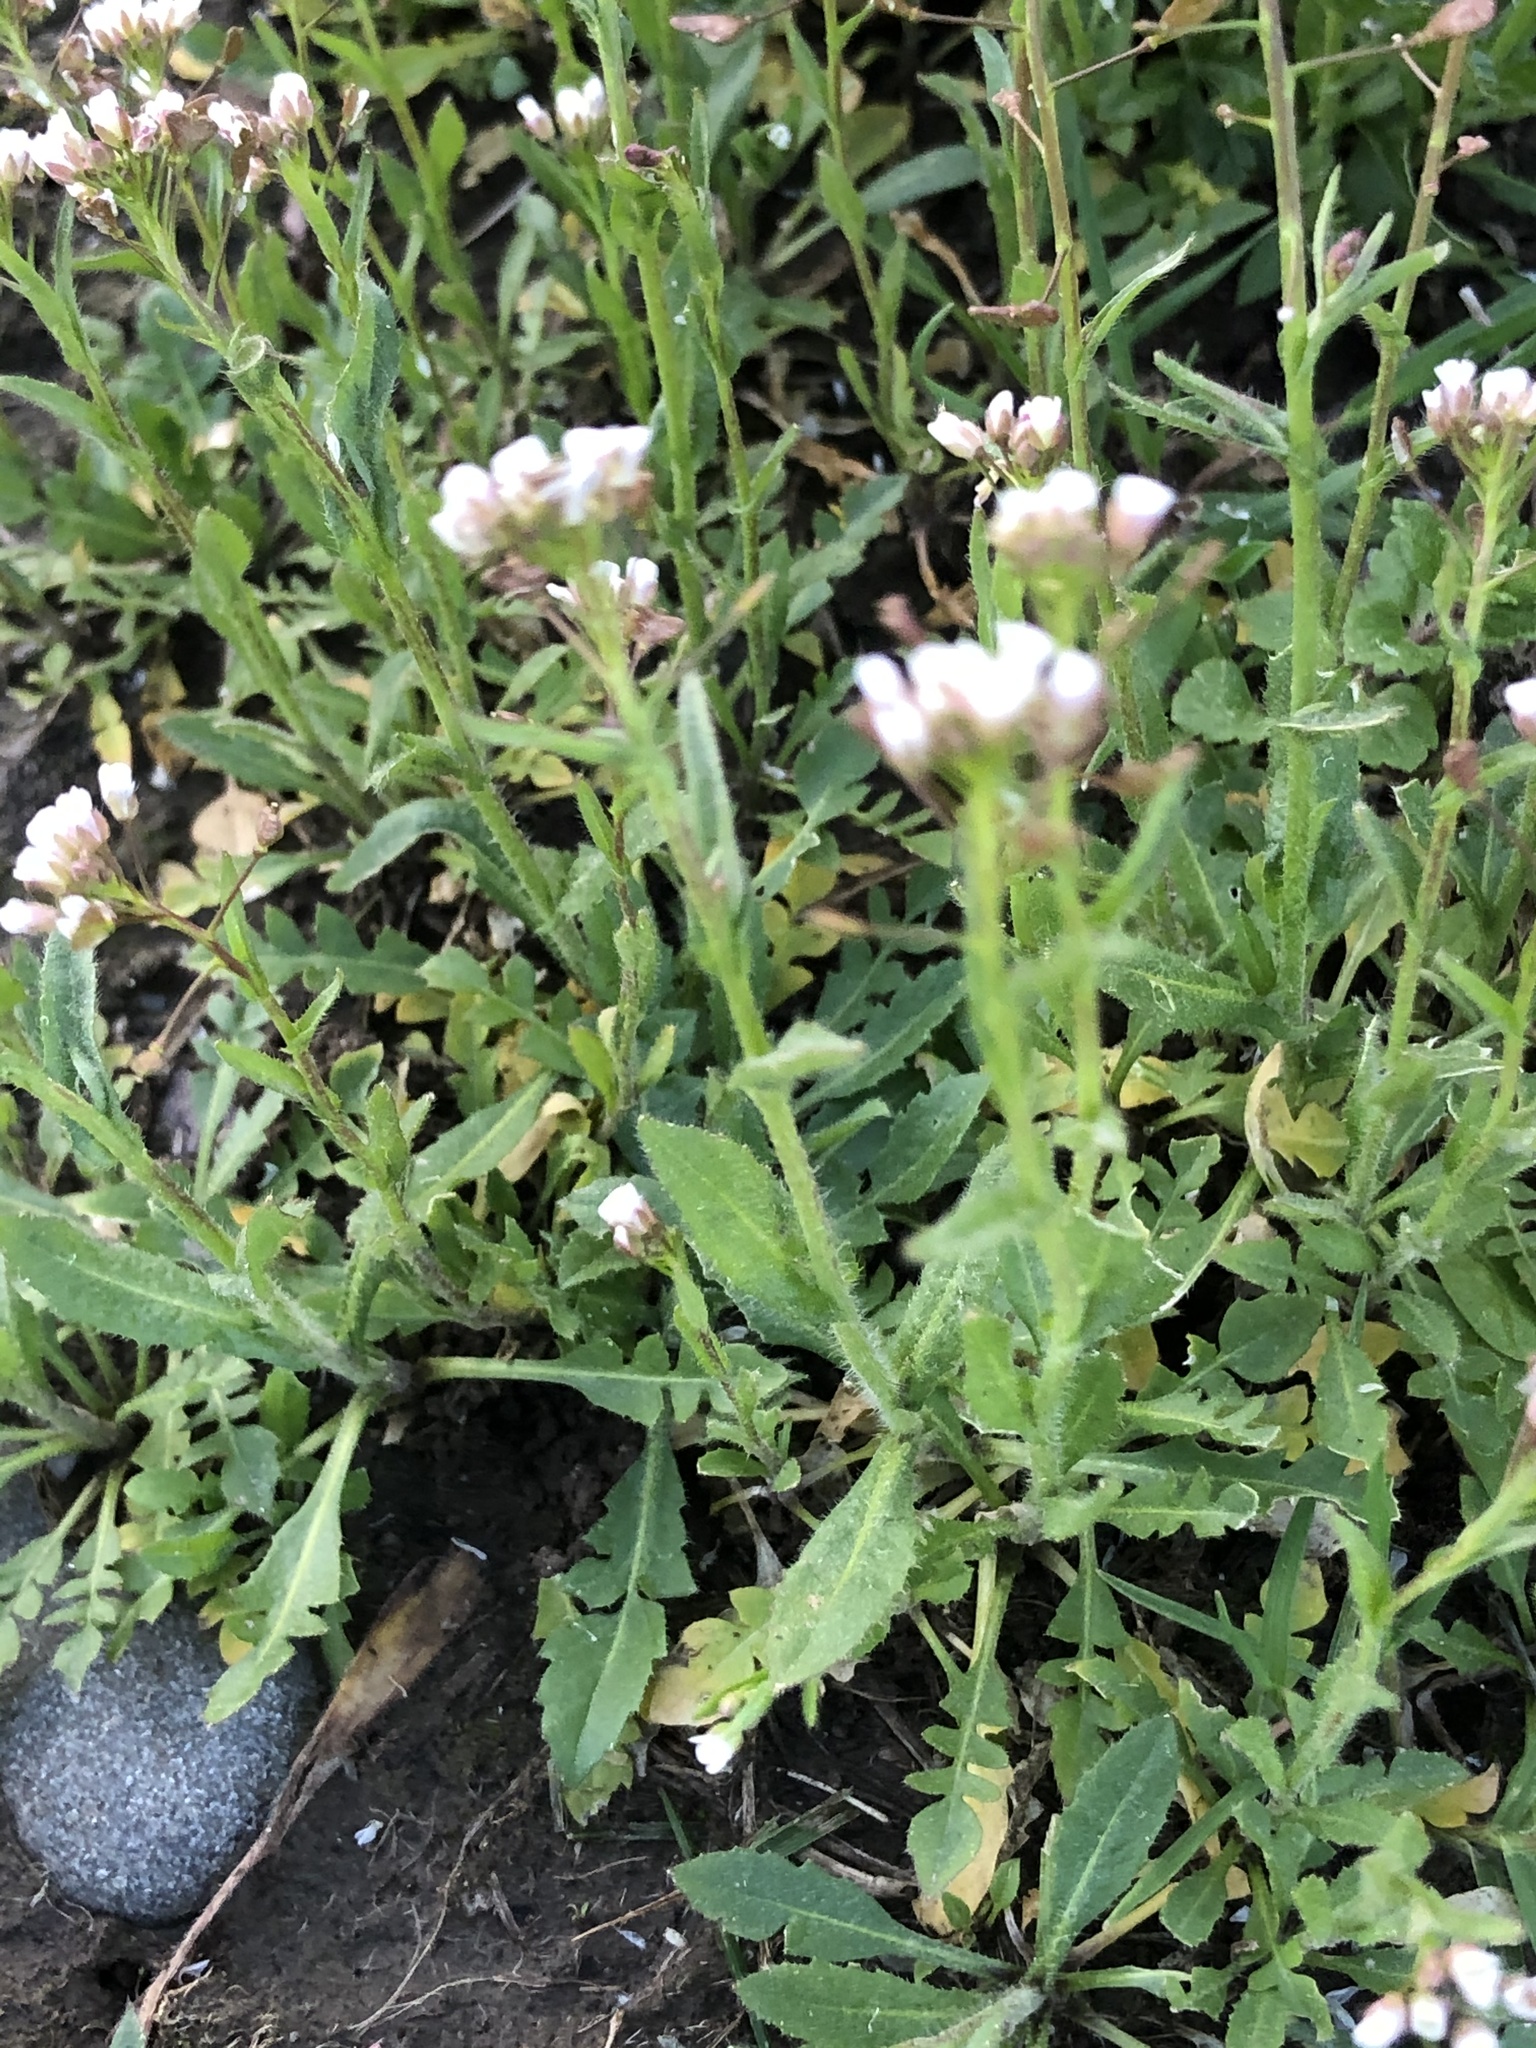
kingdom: Plantae
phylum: Tracheophyta
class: Magnoliopsida
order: Brassicales
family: Brassicaceae
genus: Capsella
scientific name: Capsella bursa-pastoris
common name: Shepherd's purse
